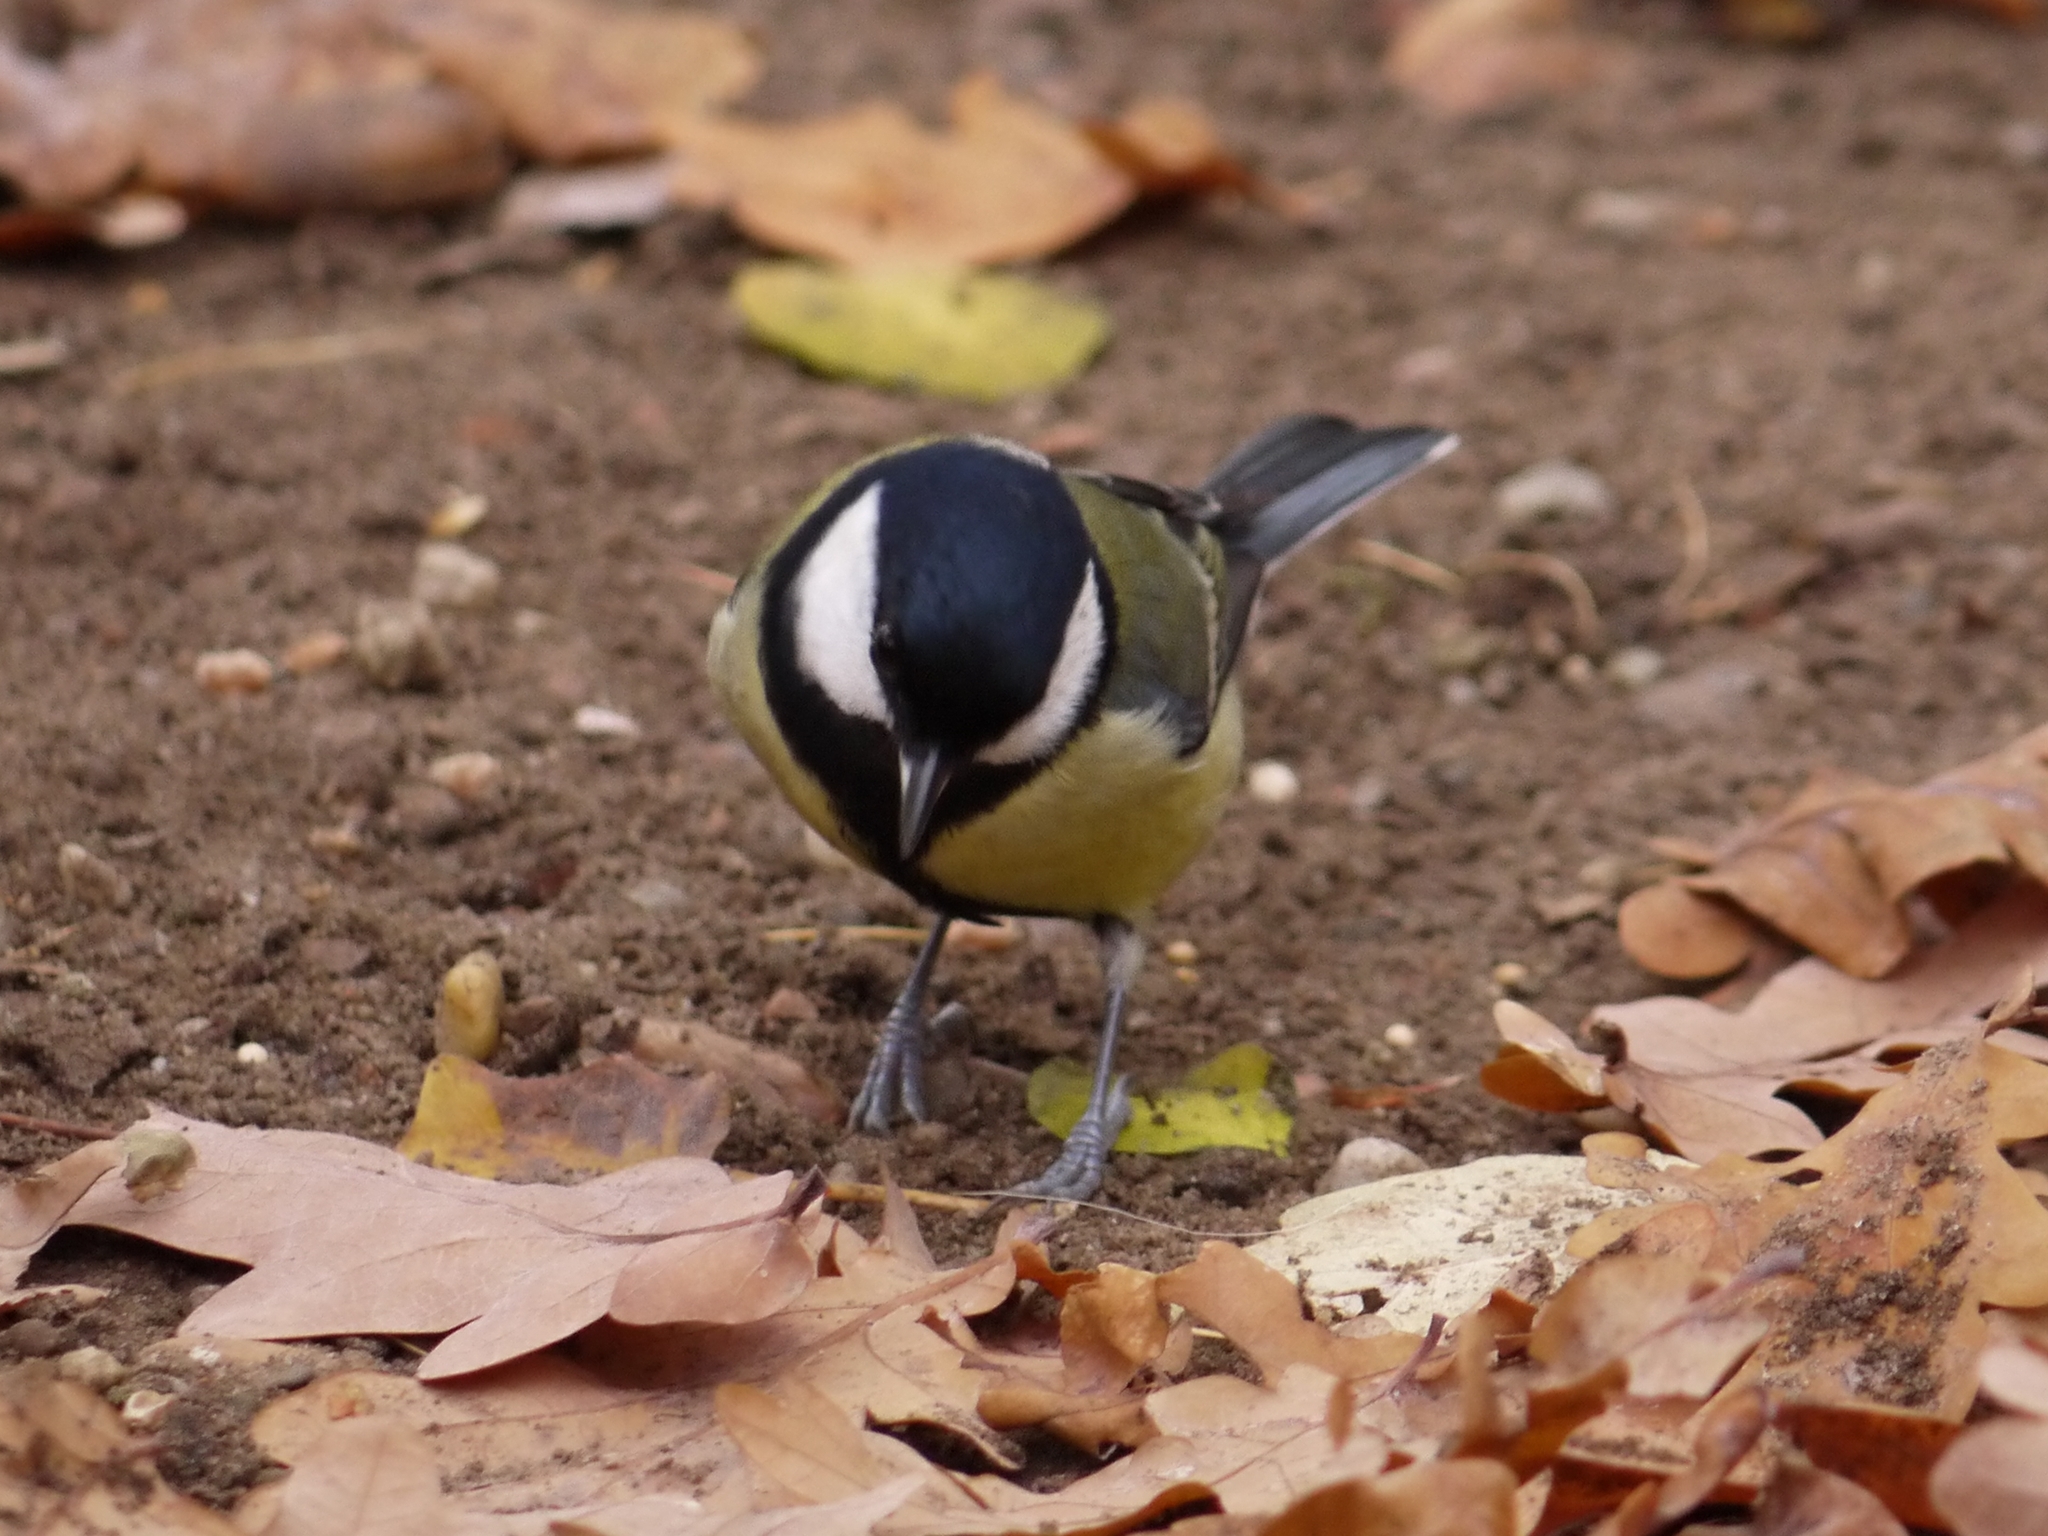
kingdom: Animalia
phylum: Chordata
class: Aves
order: Passeriformes
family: Paridae
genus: Parus
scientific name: Parus major
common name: Great tit
